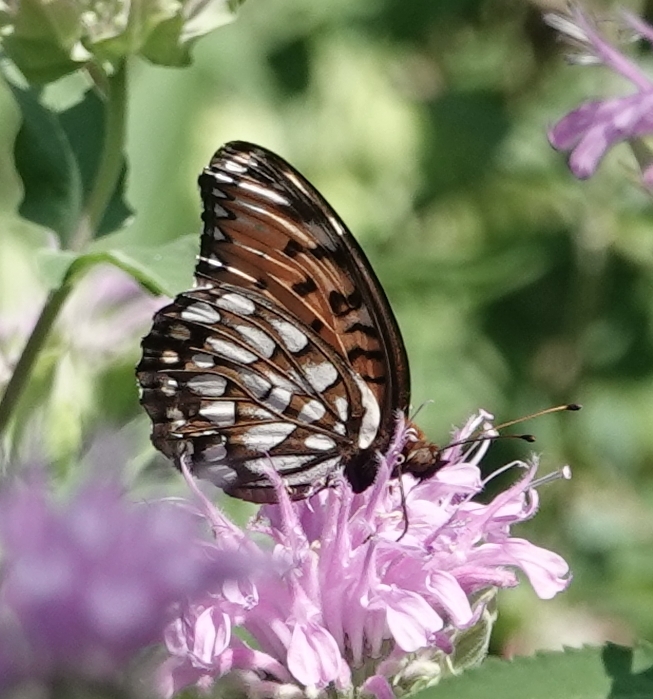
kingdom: Animalia
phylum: Arthropoda
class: Insecta
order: Lepidoptera
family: Nymphalidae
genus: Speyeria
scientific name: Speyeria idalia
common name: Regal fritillary
